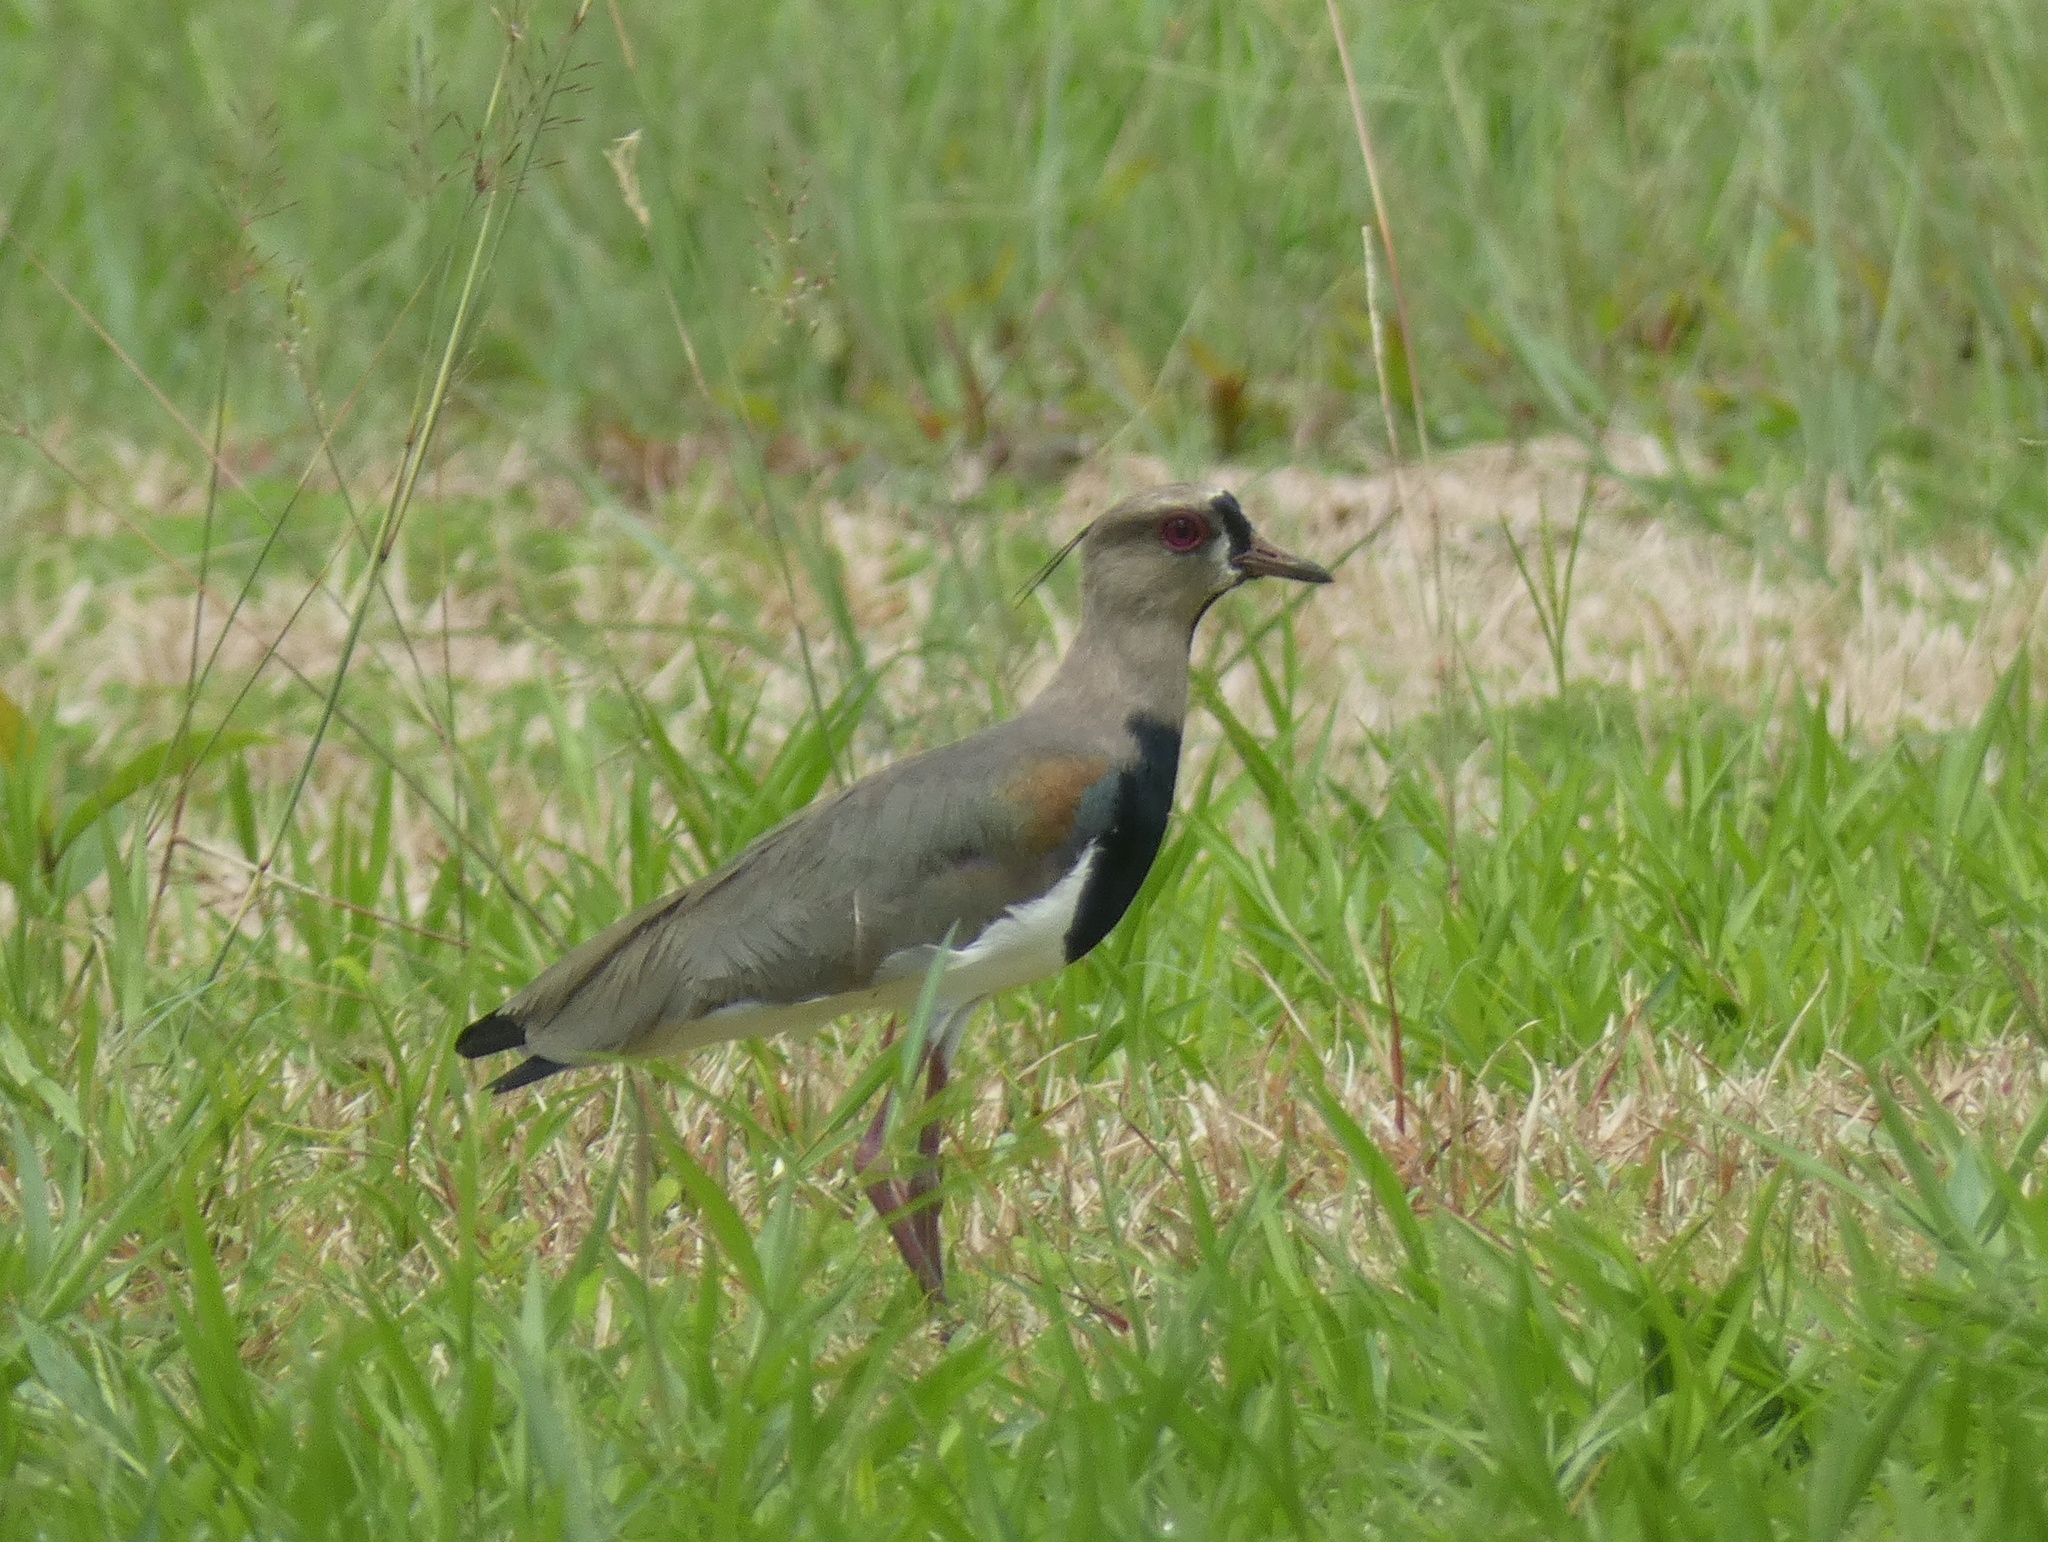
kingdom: Animalia
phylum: Chordata
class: Aves
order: Charadriiformes
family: Charadriidae
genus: Vanellus
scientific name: Vanellus chilensis
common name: Southern lapwing
